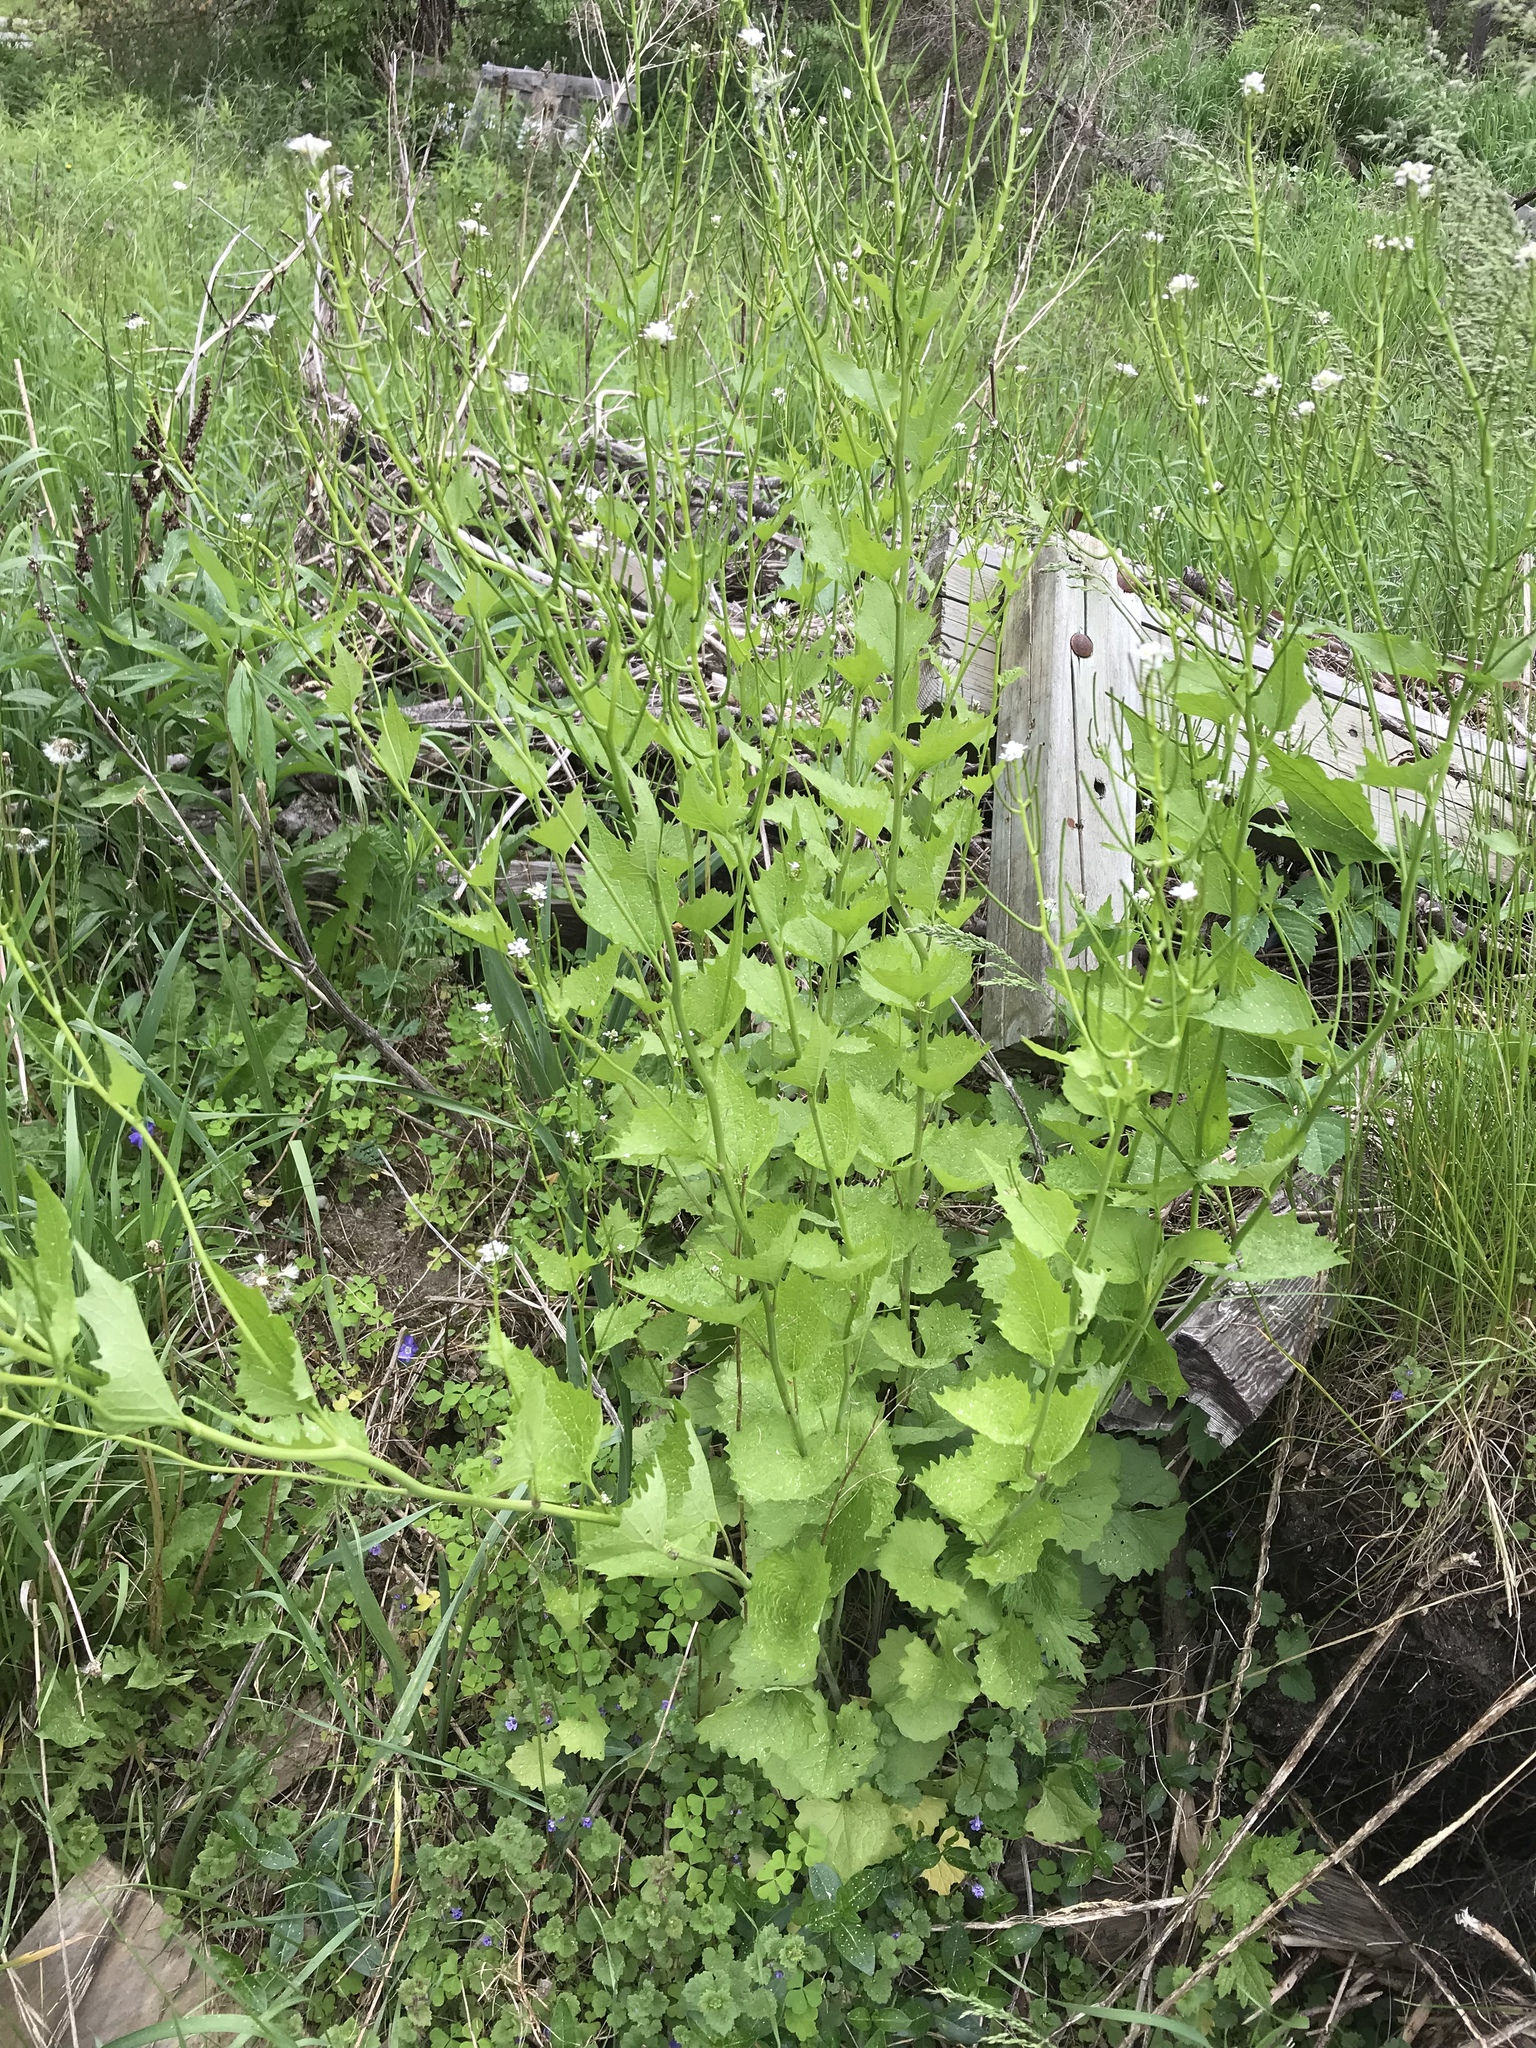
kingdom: Plantae
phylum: Tracheophyta
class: Magnoliopsida
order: Brassicales
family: Brassicaceae
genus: Alliaria
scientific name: Alliaria petiolata
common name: Garlic mustard
